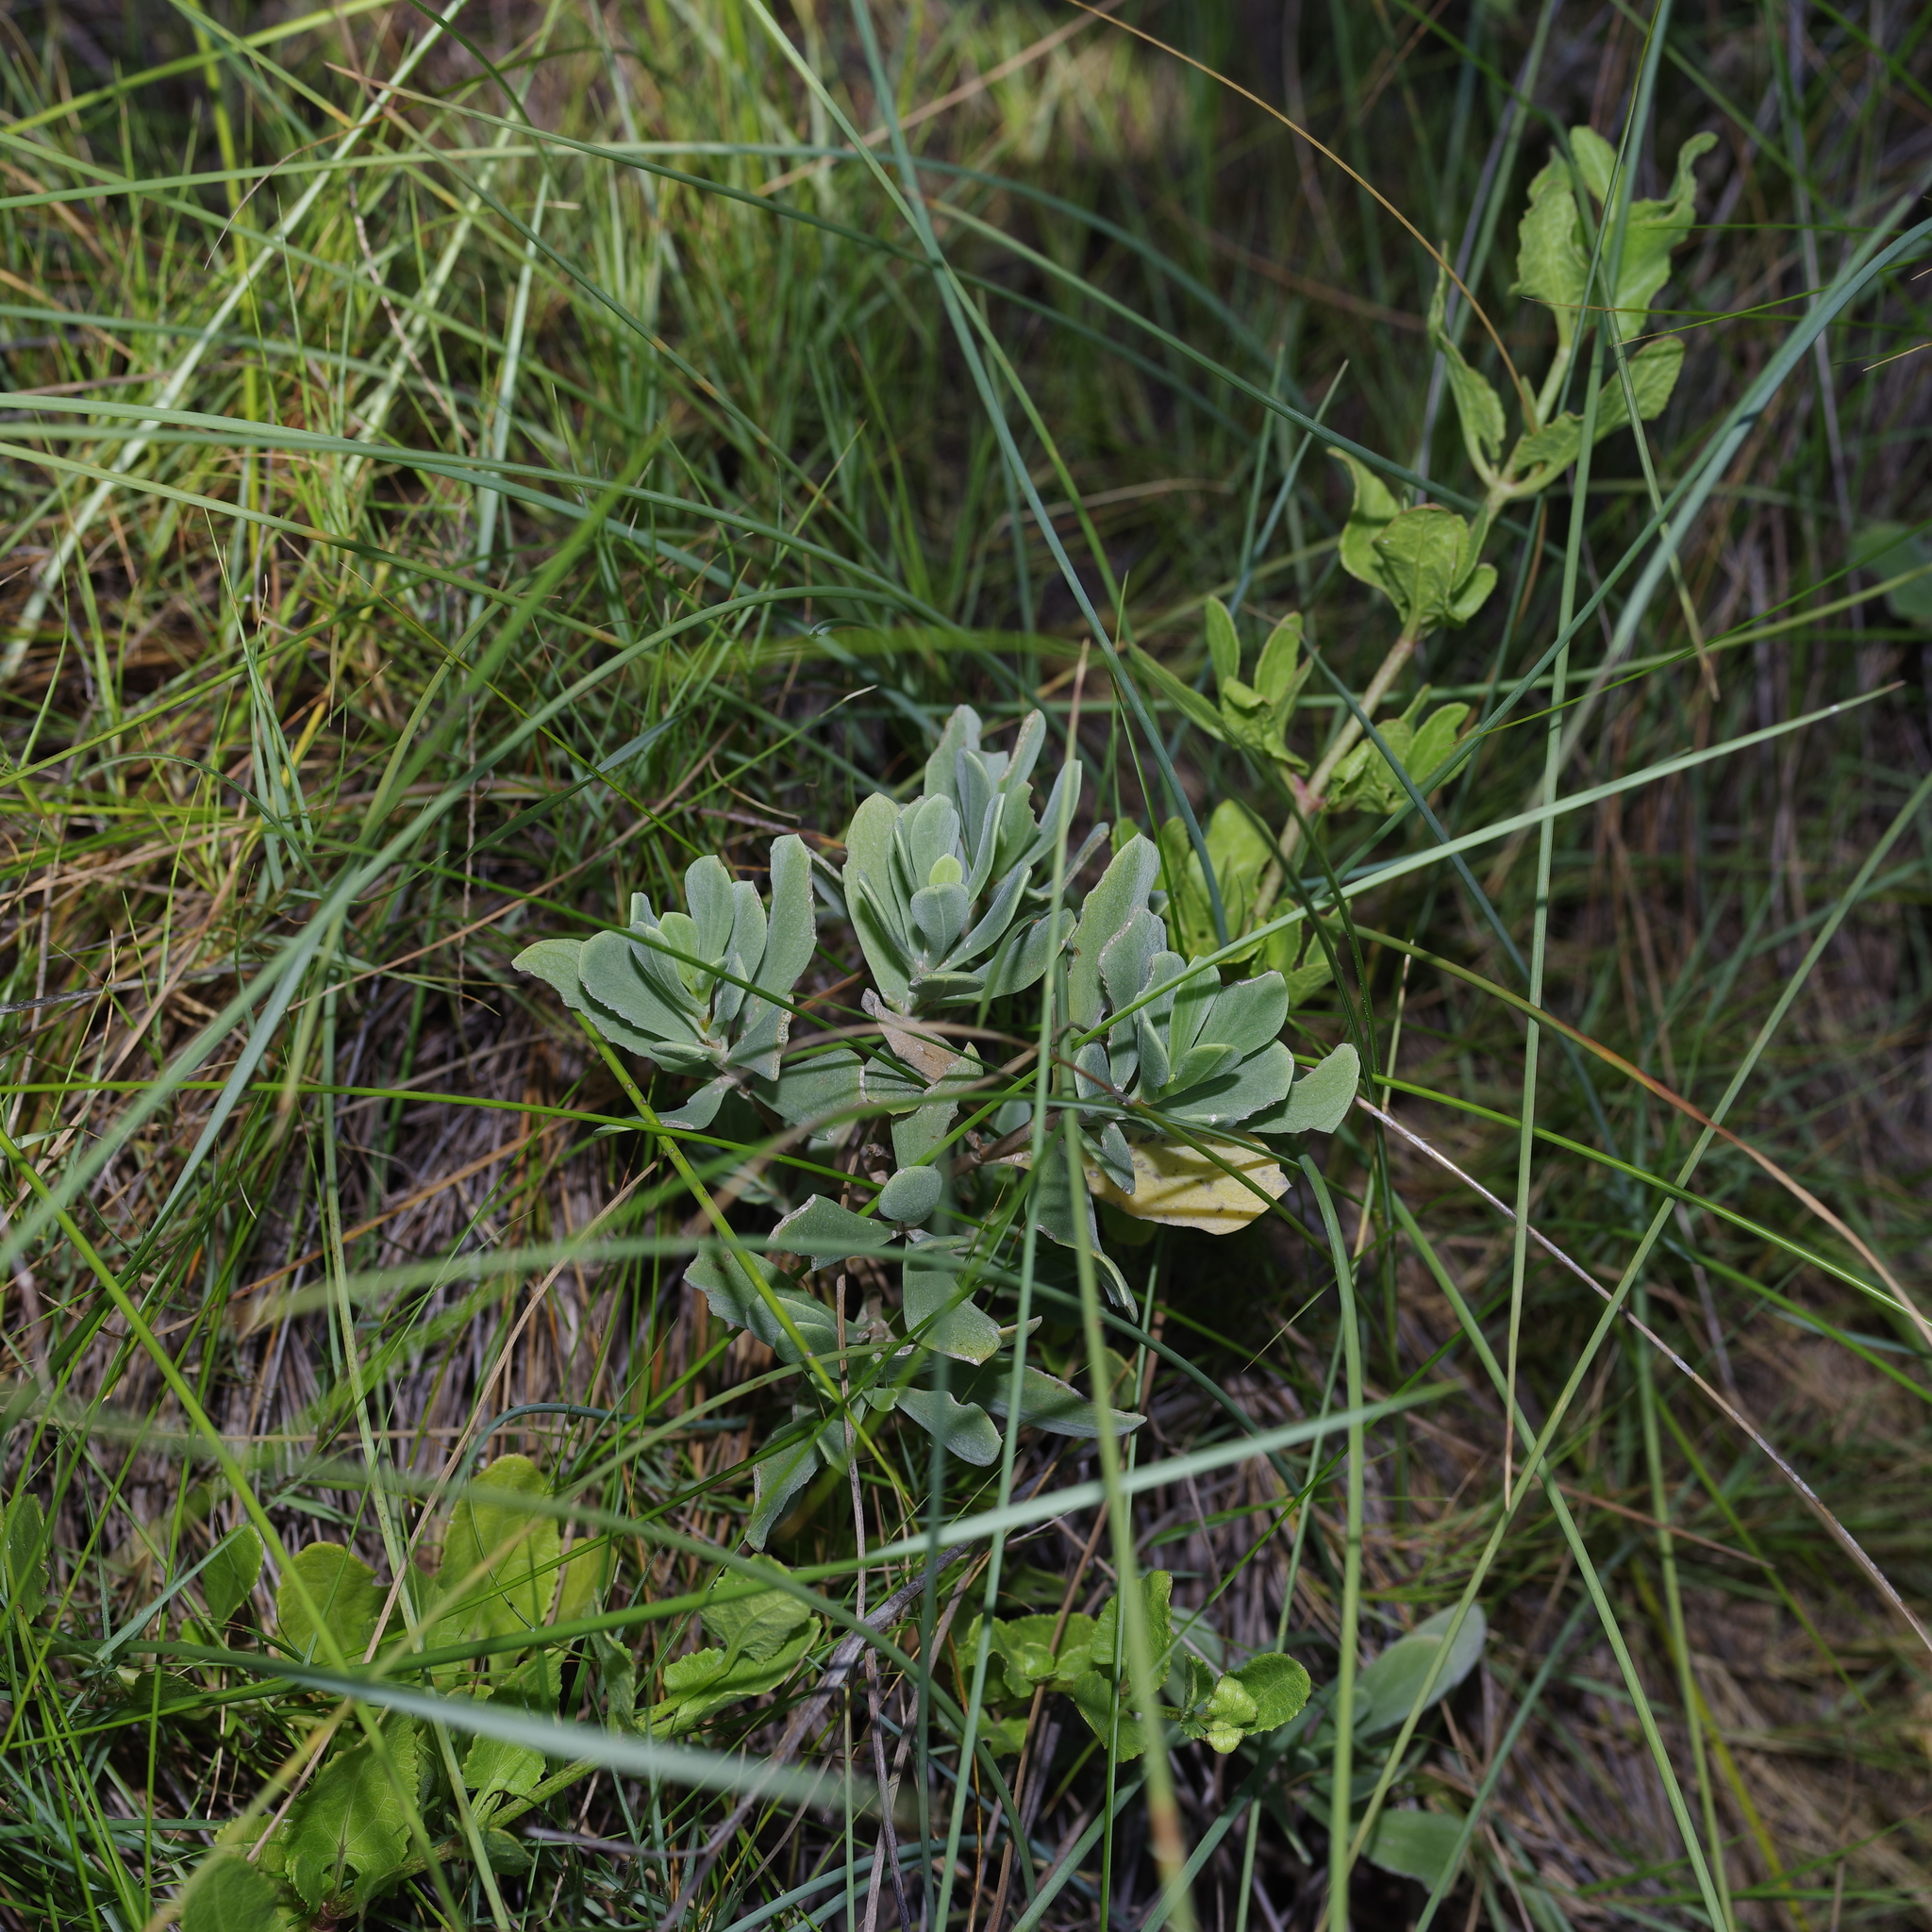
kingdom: Plantae
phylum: Tracheophyta
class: Magnoliopsida
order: Asterales
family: Asteraceae
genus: Borrichia
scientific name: Borrichia frutescens
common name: Sea oxeye
